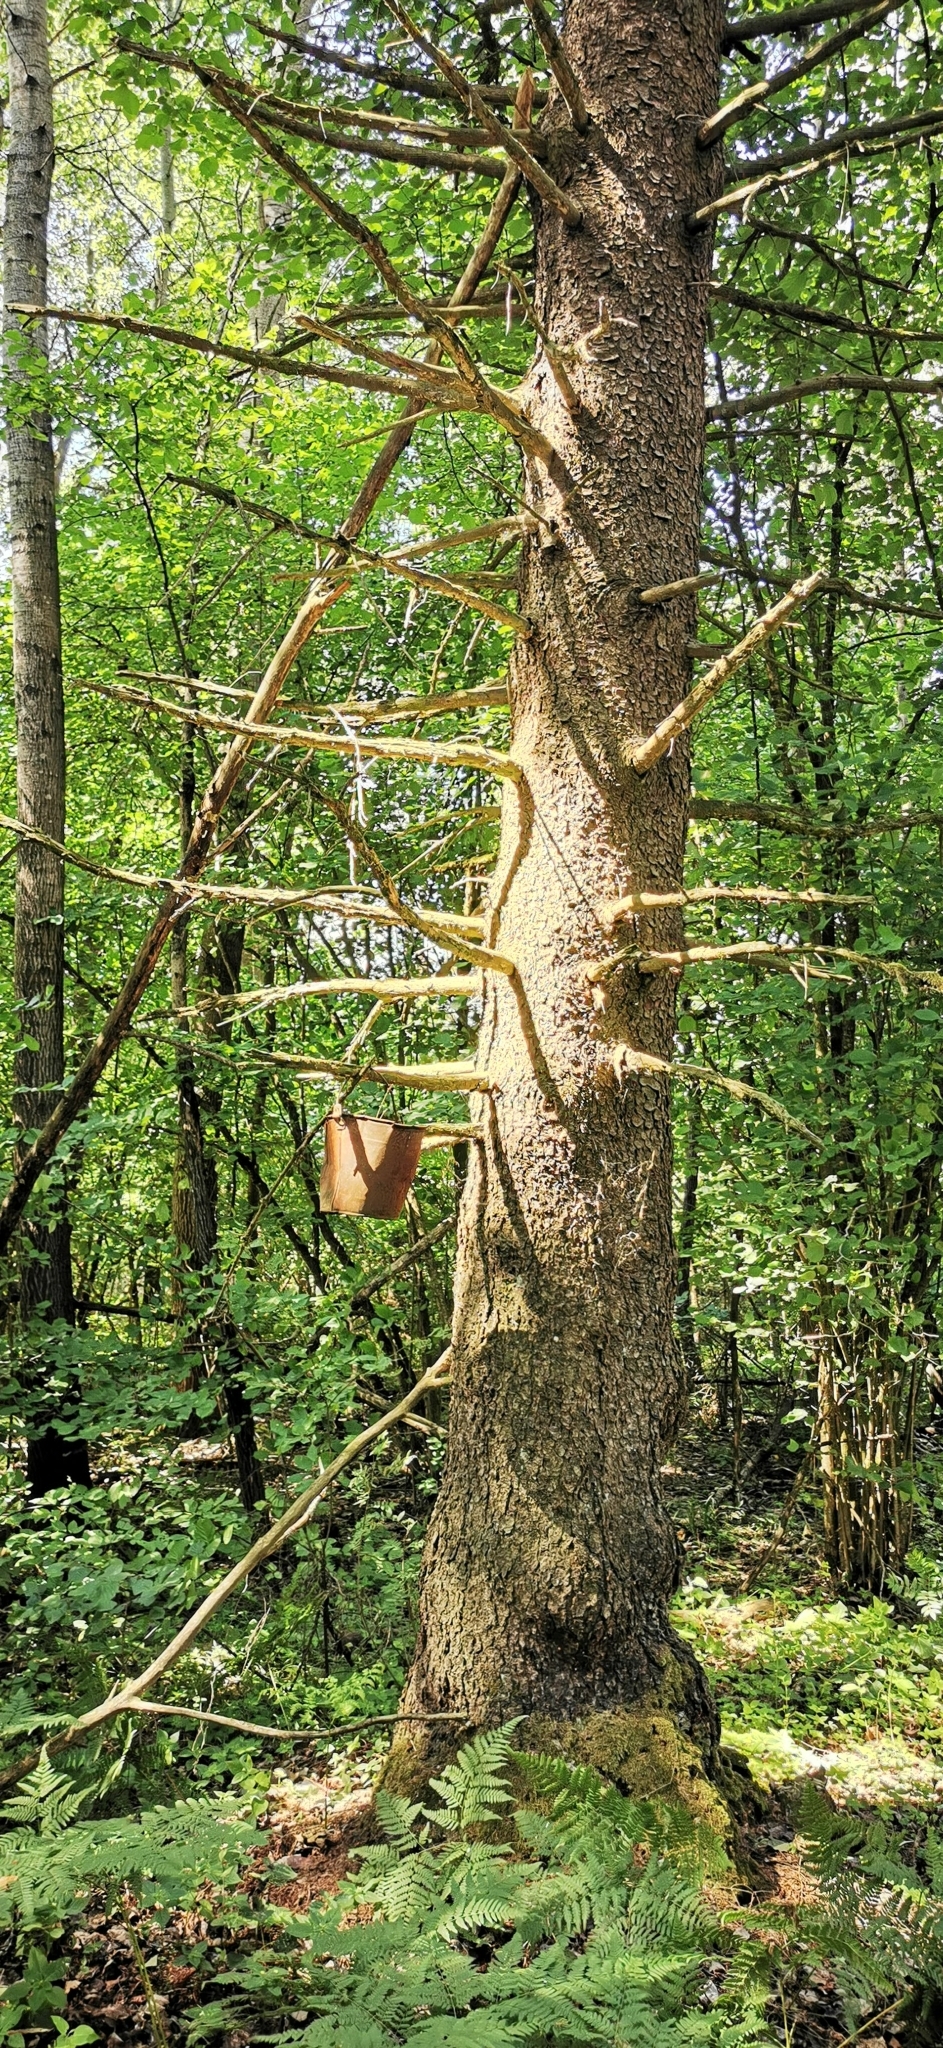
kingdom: Plantae
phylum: Tracheophyta
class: Pinopsida
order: Pinales
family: Pinaceae
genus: Picea
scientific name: Picea abies
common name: Norway spruce
